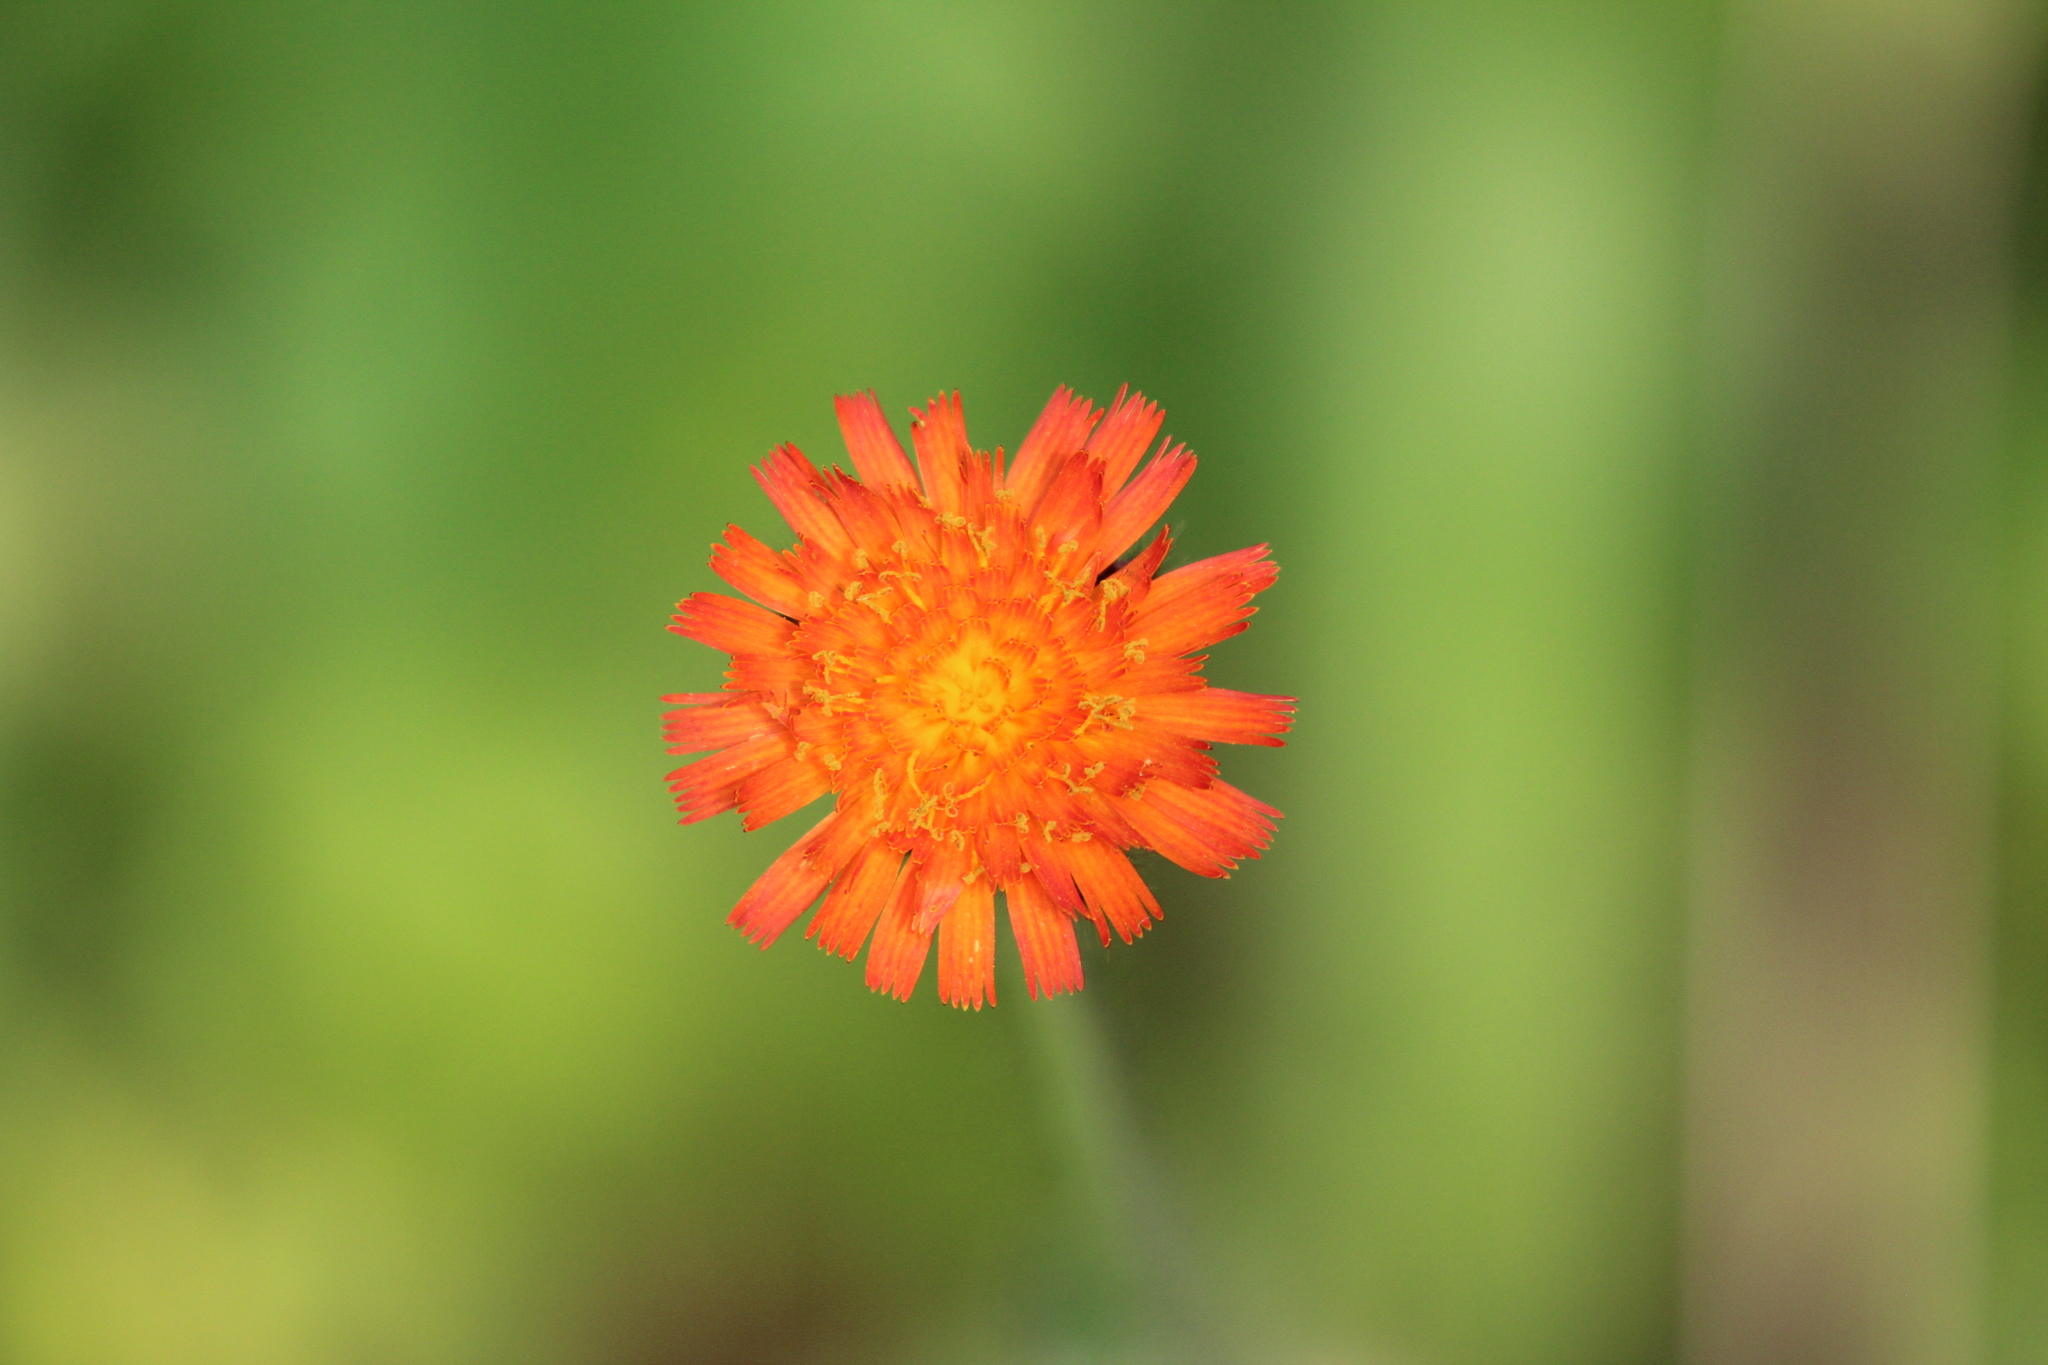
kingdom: Plantae
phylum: Tracheophyta
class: Magnoliopsida
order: Asterales
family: Asteraceae
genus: Pilosella
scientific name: Pilosella aurantiaca
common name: Fox-and-cubs
